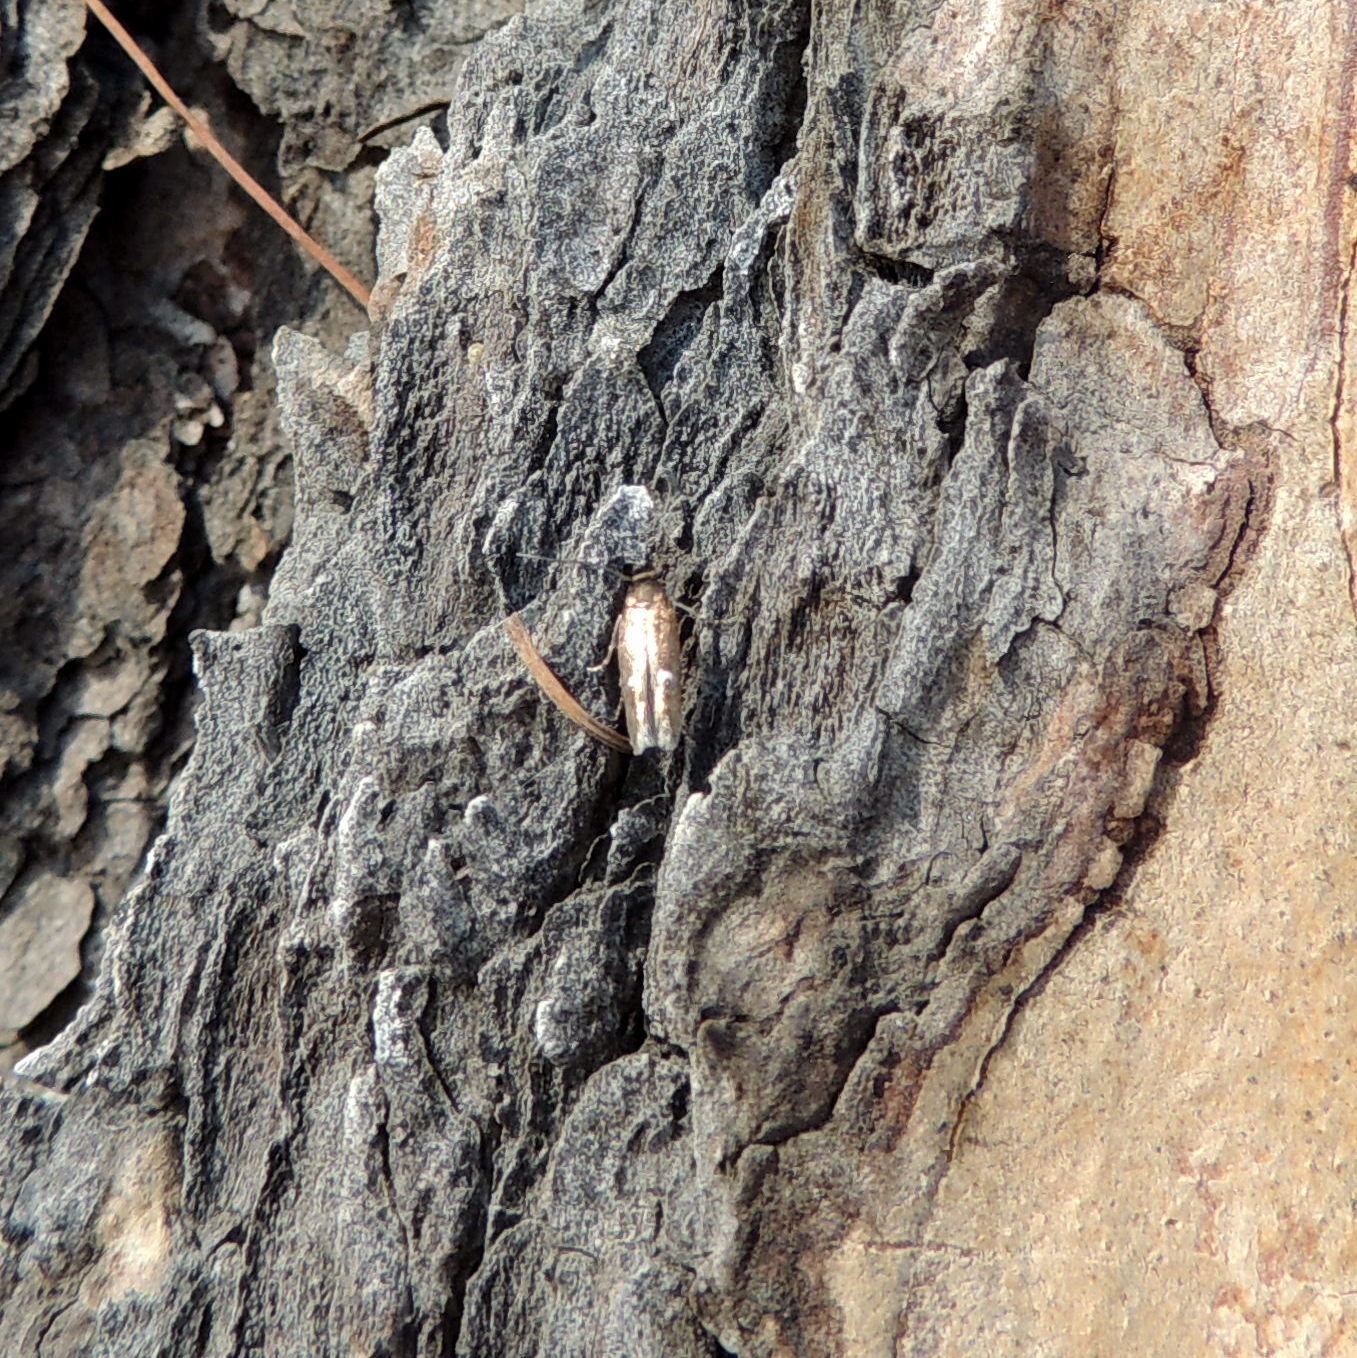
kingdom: Animalia
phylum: Arthropoda
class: Insecta
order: Lepidoptera
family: Momphidae
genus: Mompha
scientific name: Mompha langiella
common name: Clouded cosmet
